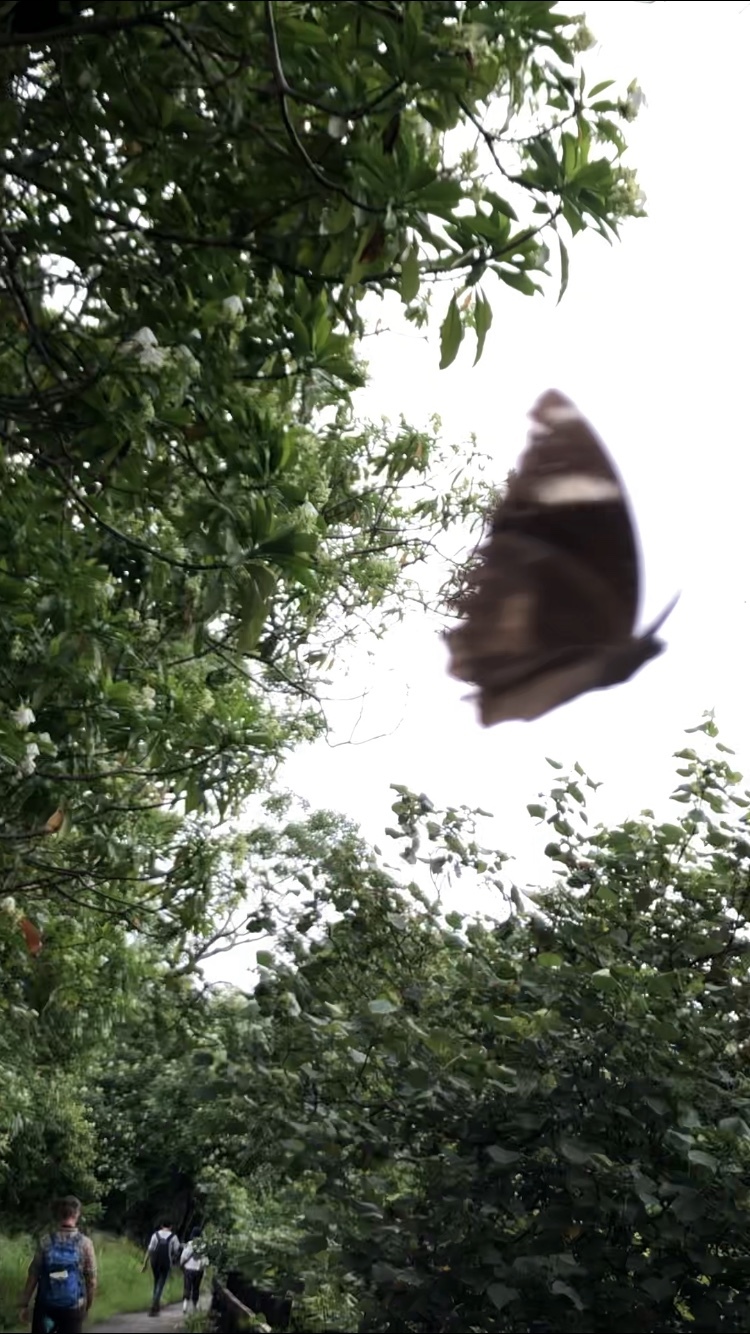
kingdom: Animalia
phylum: Arthropoda
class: Insecta
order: Lepidoptera
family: Nymphalidae
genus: Hypolimnas
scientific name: Hypolimnas bolina
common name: Great eggfly
